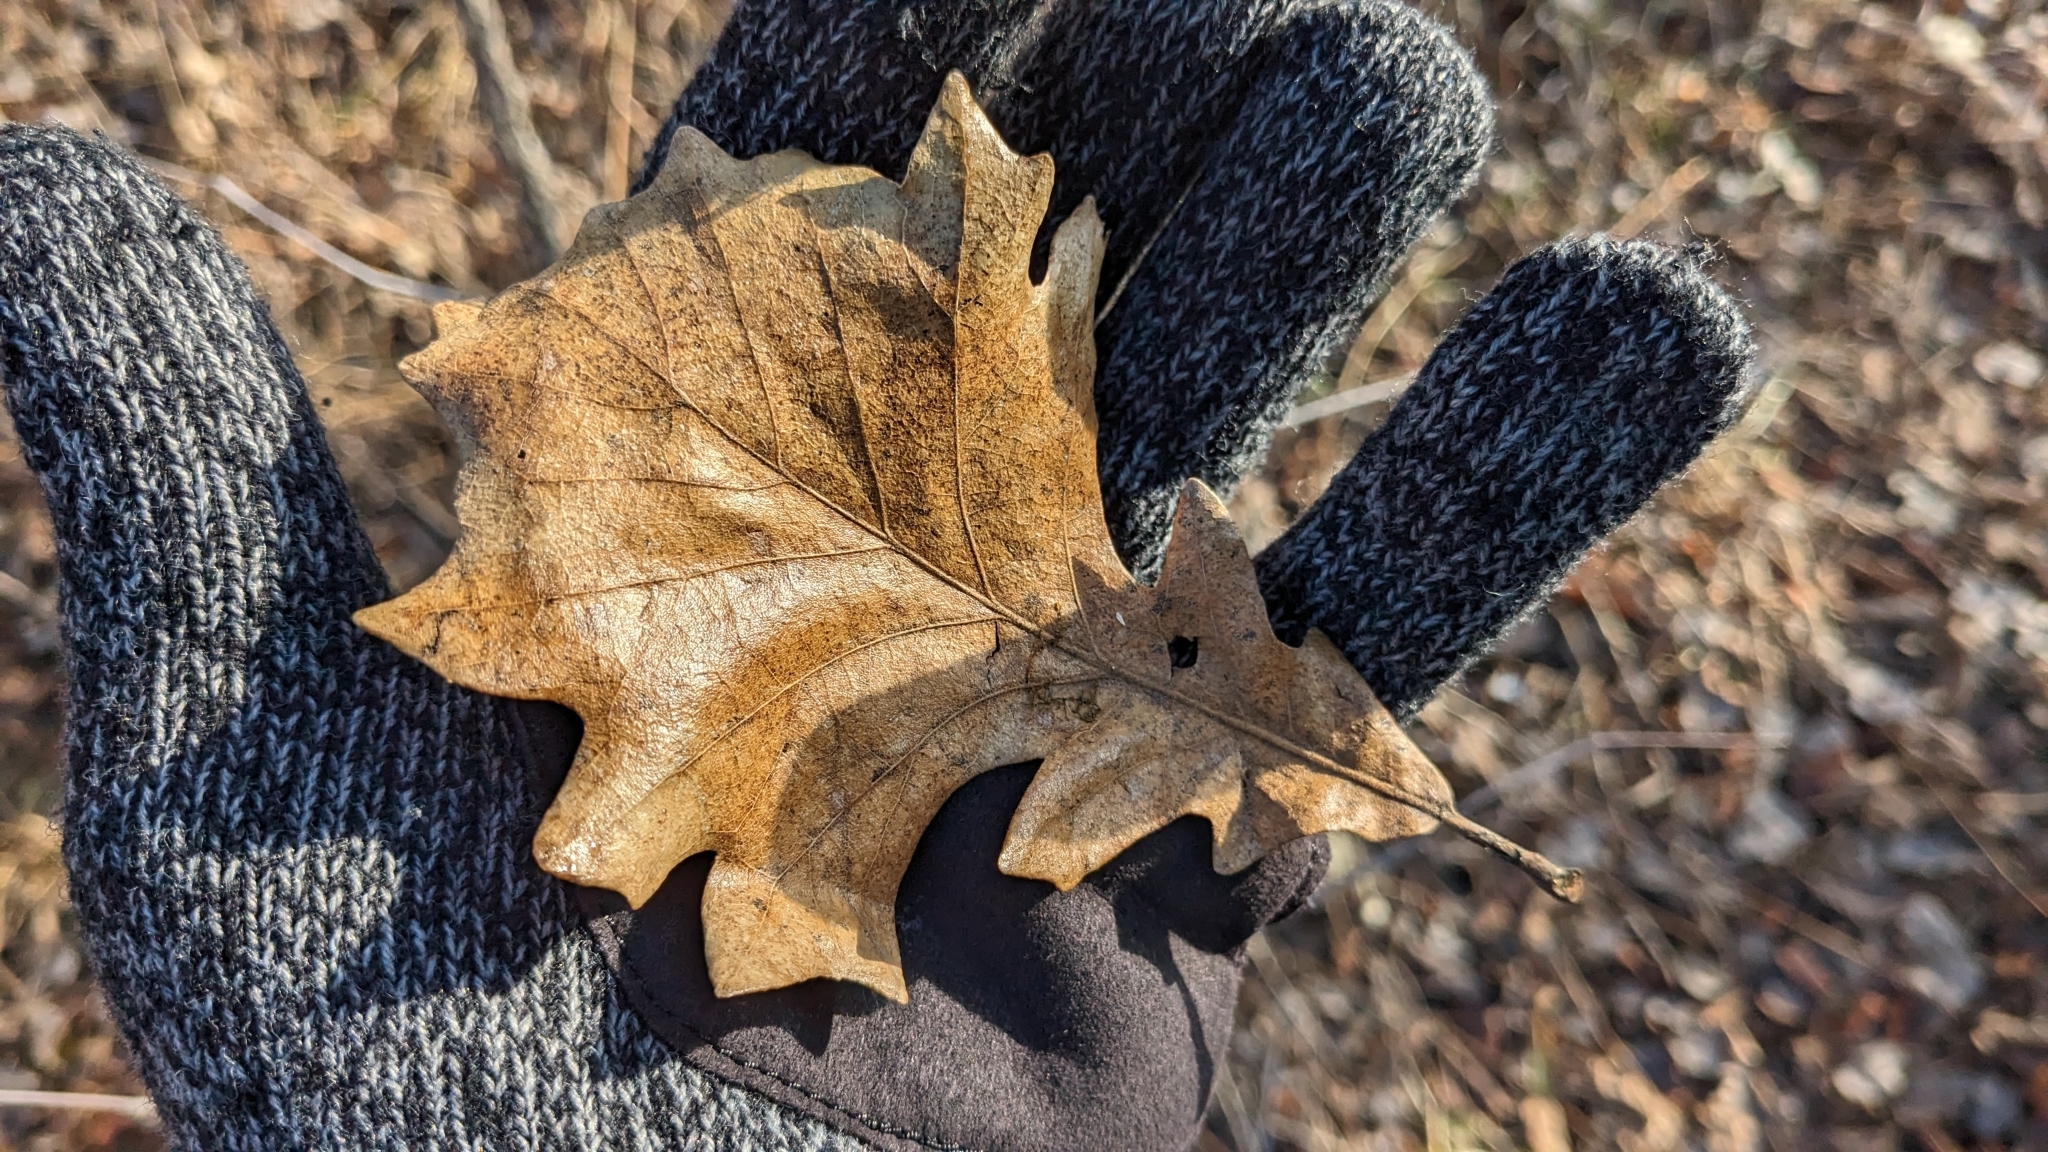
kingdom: Plantae
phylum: Tracheophyta
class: Magnoliopsida
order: Fagales
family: Fagaceae
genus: Quercus
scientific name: Quercus macrocarpa
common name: Bur oak
